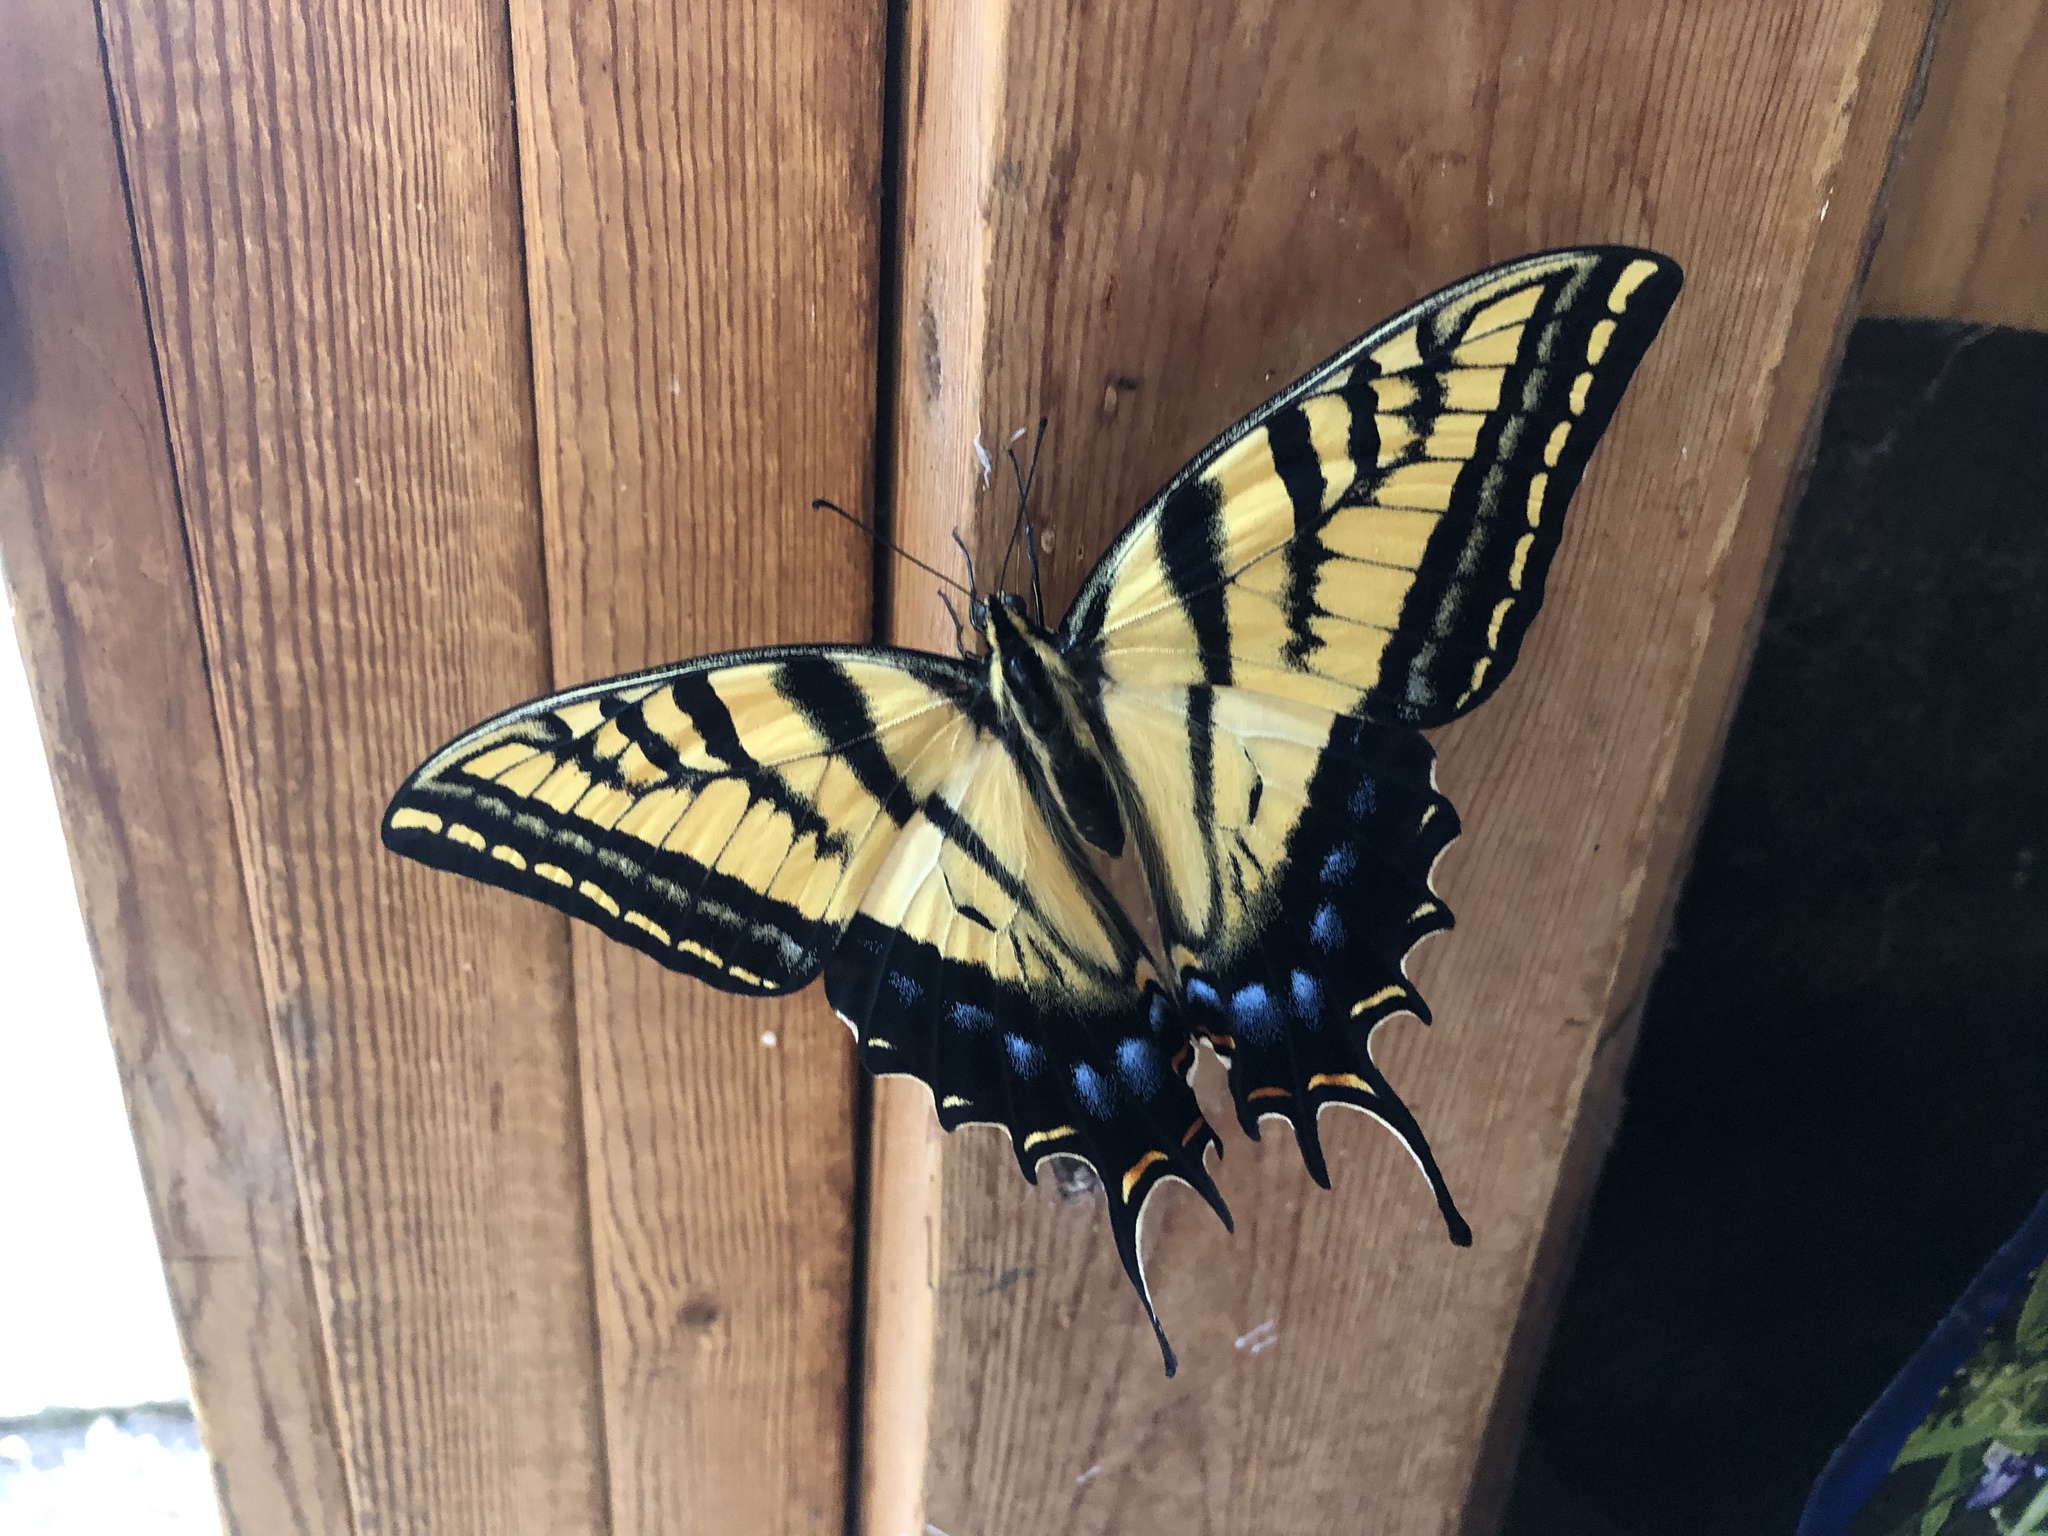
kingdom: Animalia
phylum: Arthropoda
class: Insecta
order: Lepidoptera
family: Papilionidae
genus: Papilio
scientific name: Papilio multicaudata
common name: Two-tailed tiger swallowtail
